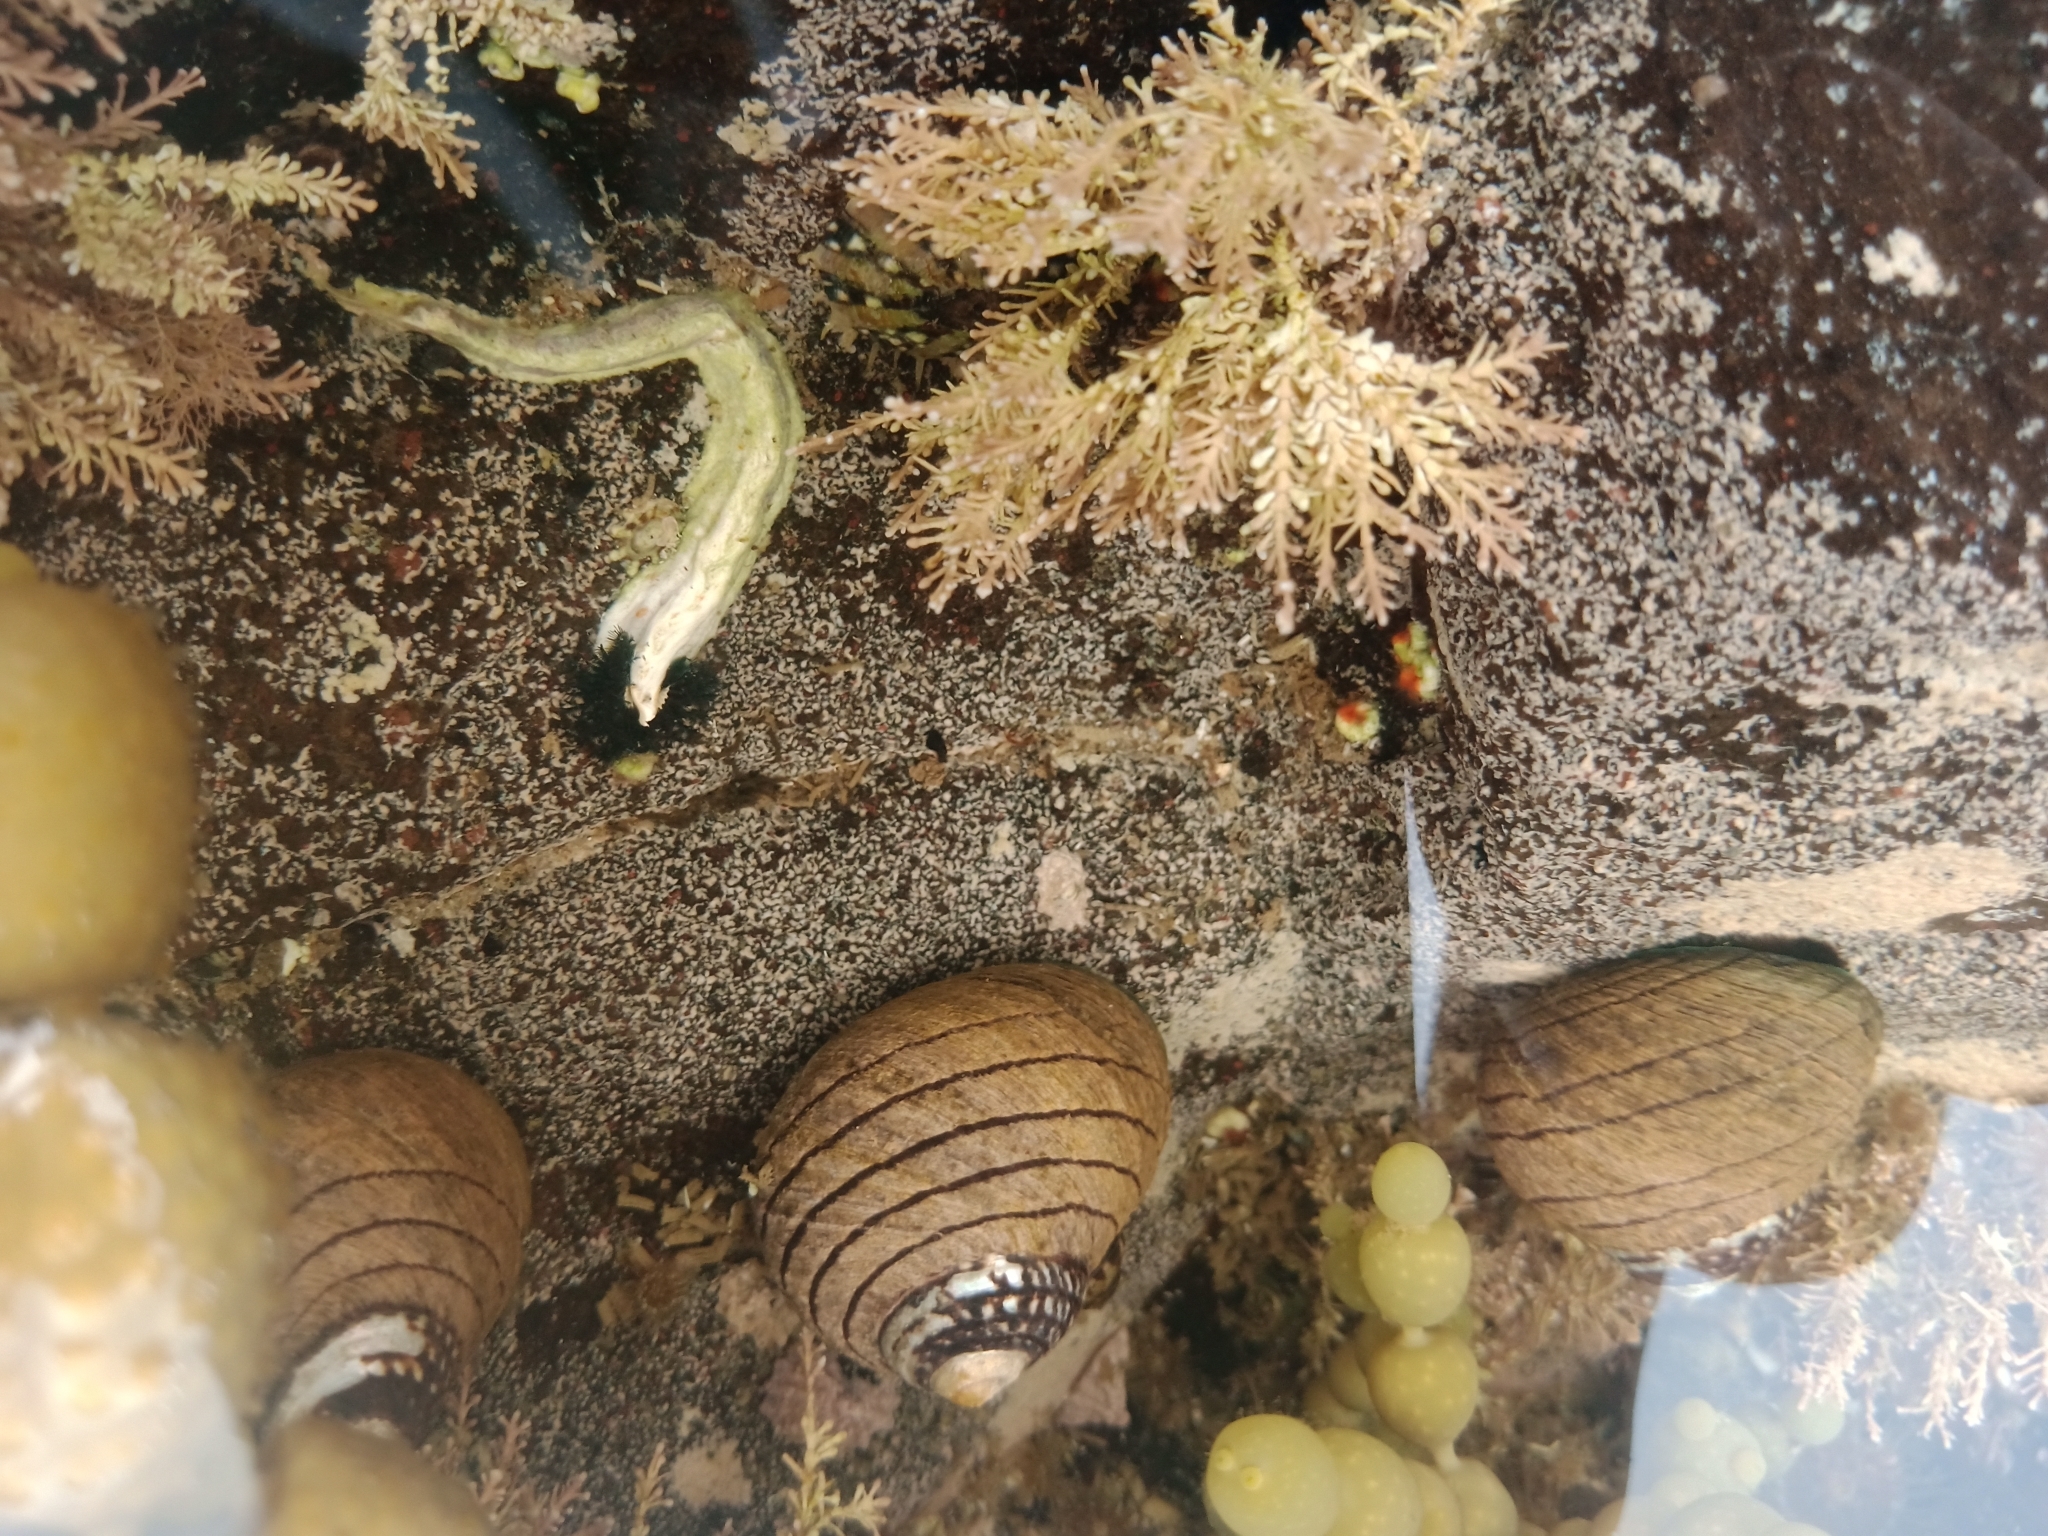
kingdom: Animalia
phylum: Annelida
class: Polychaeta
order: Sabellida
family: Serpulidae
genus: Spirobranchus
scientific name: Spirobranchus cariniferus
